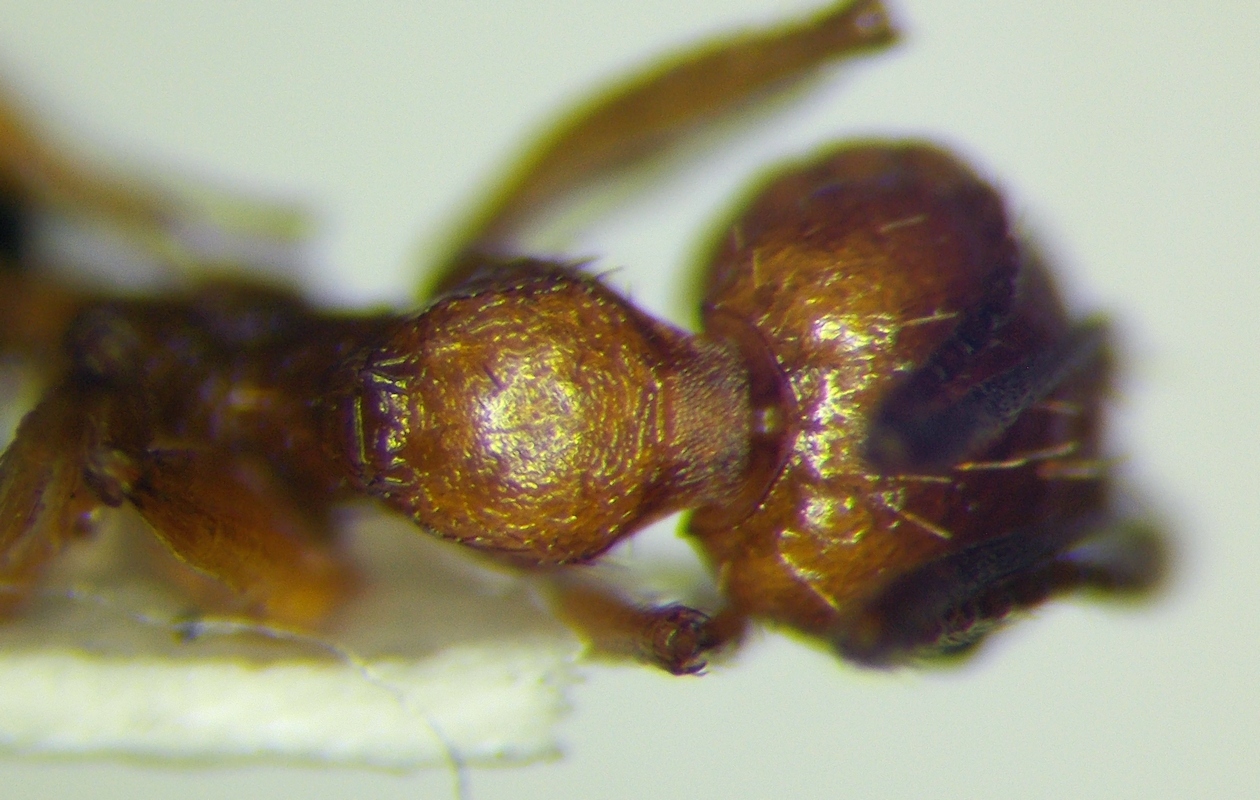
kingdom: Animalia
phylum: Arthropoda
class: Insecta
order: Hymenoptera
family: Formicidae
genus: Aphaenogaster
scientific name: Aphaenogaster syriaca
